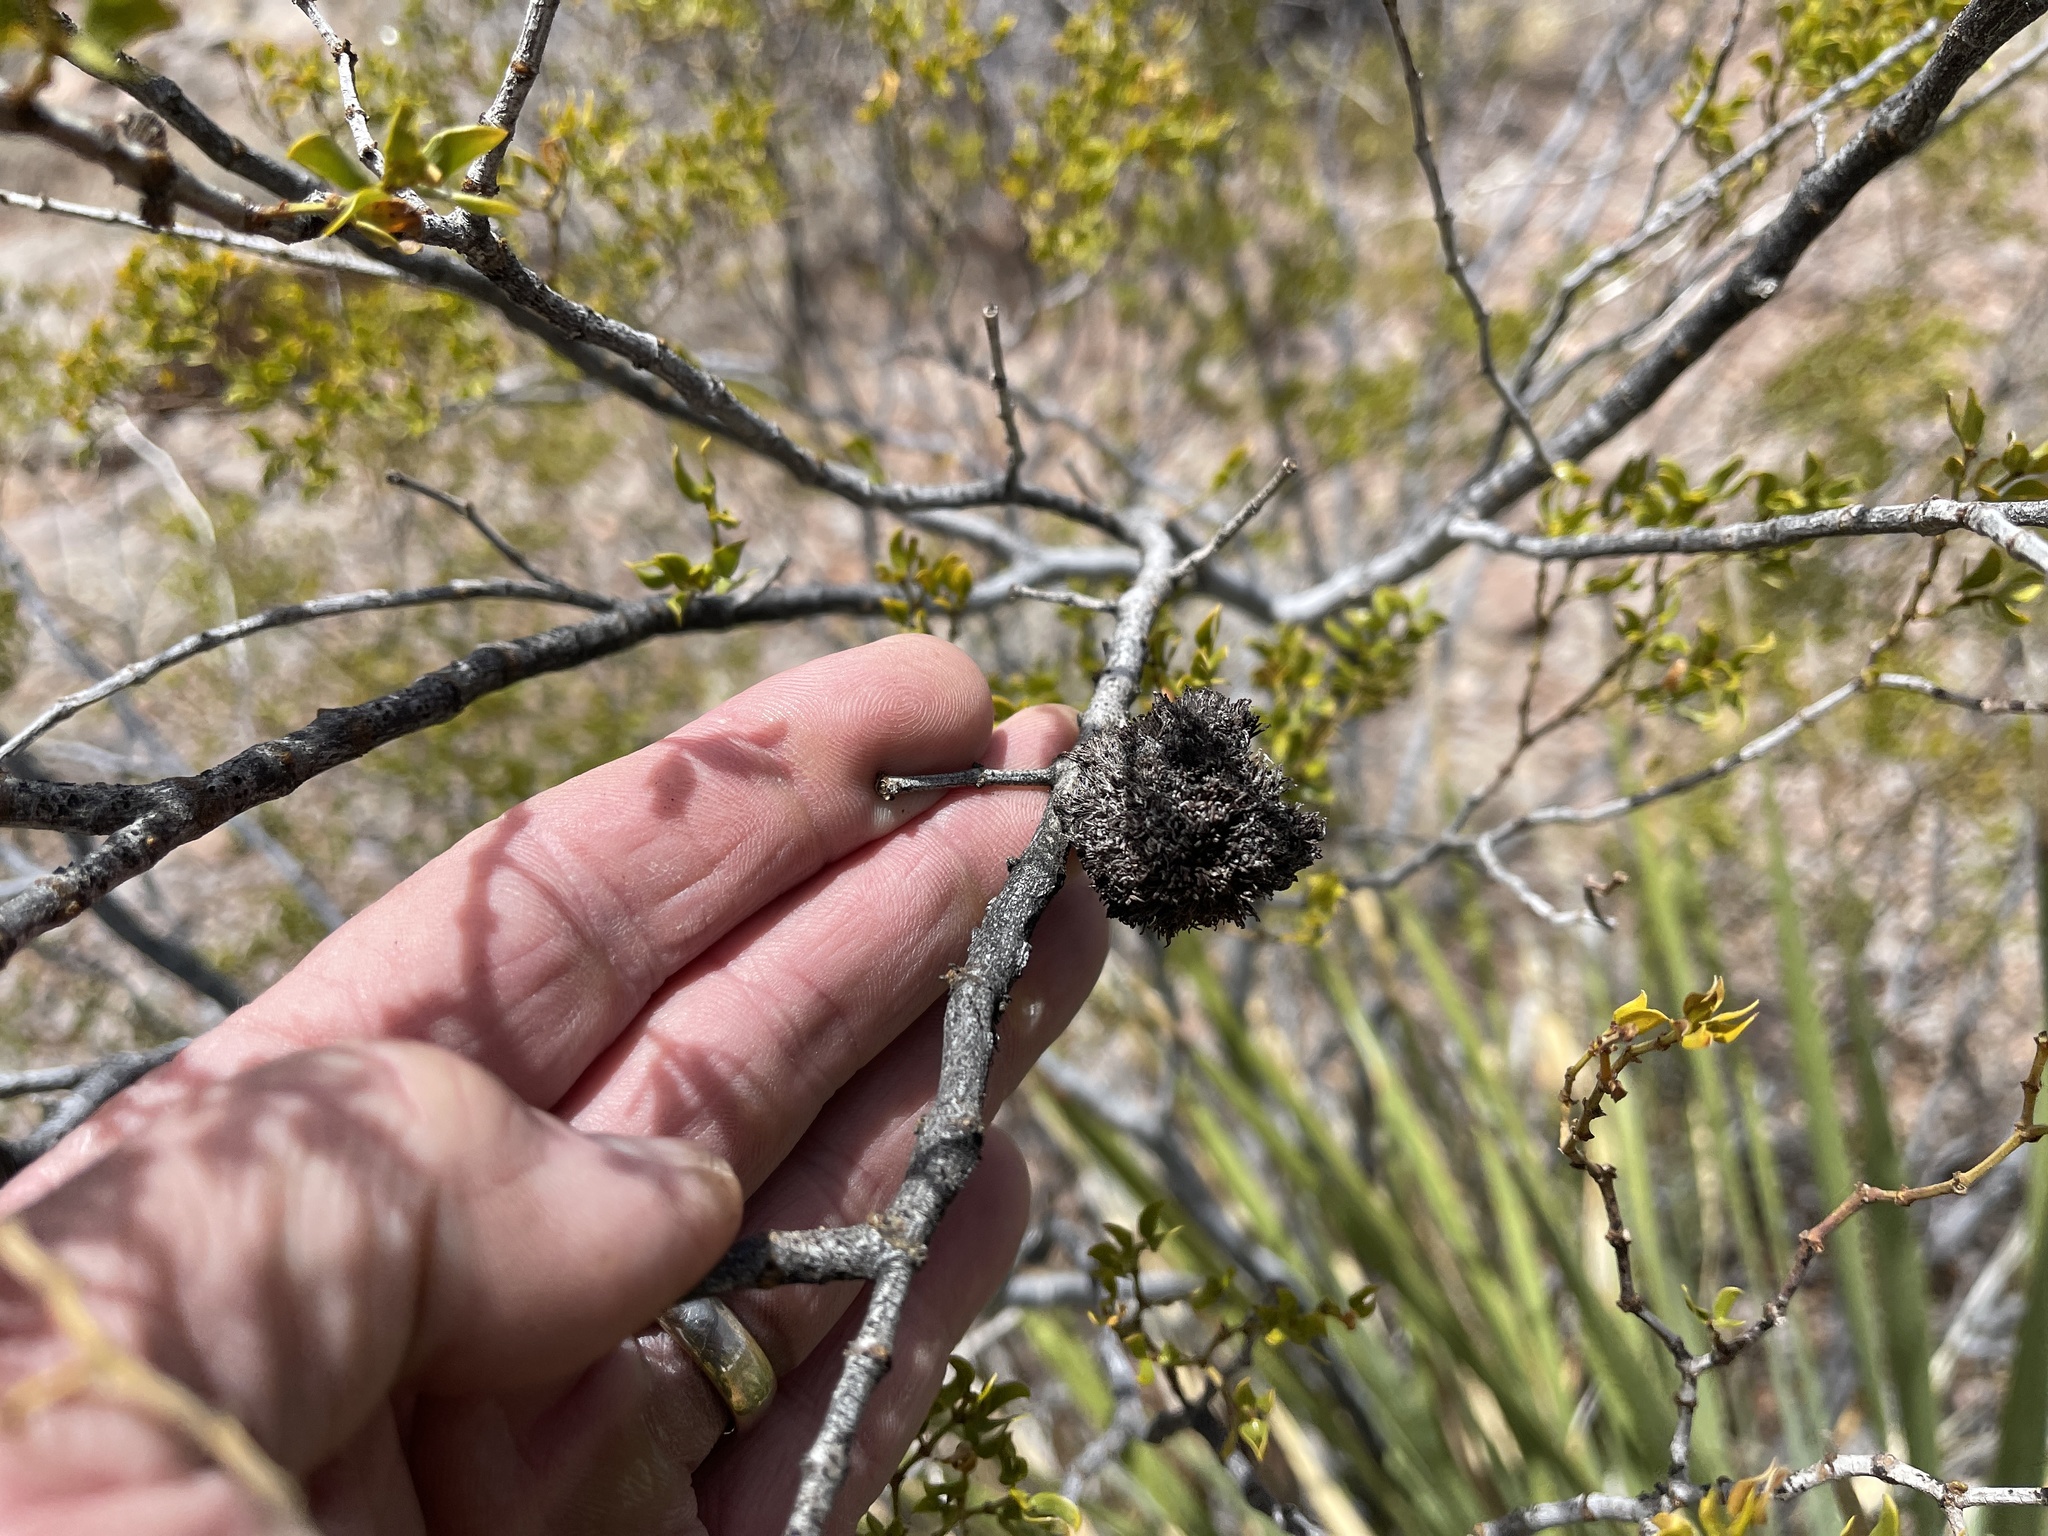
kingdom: Animalia
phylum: Arthropoda
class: Insecta
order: Diptera
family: Cecidomyiidae
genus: Asphondylia
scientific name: Asphondylia auripila
